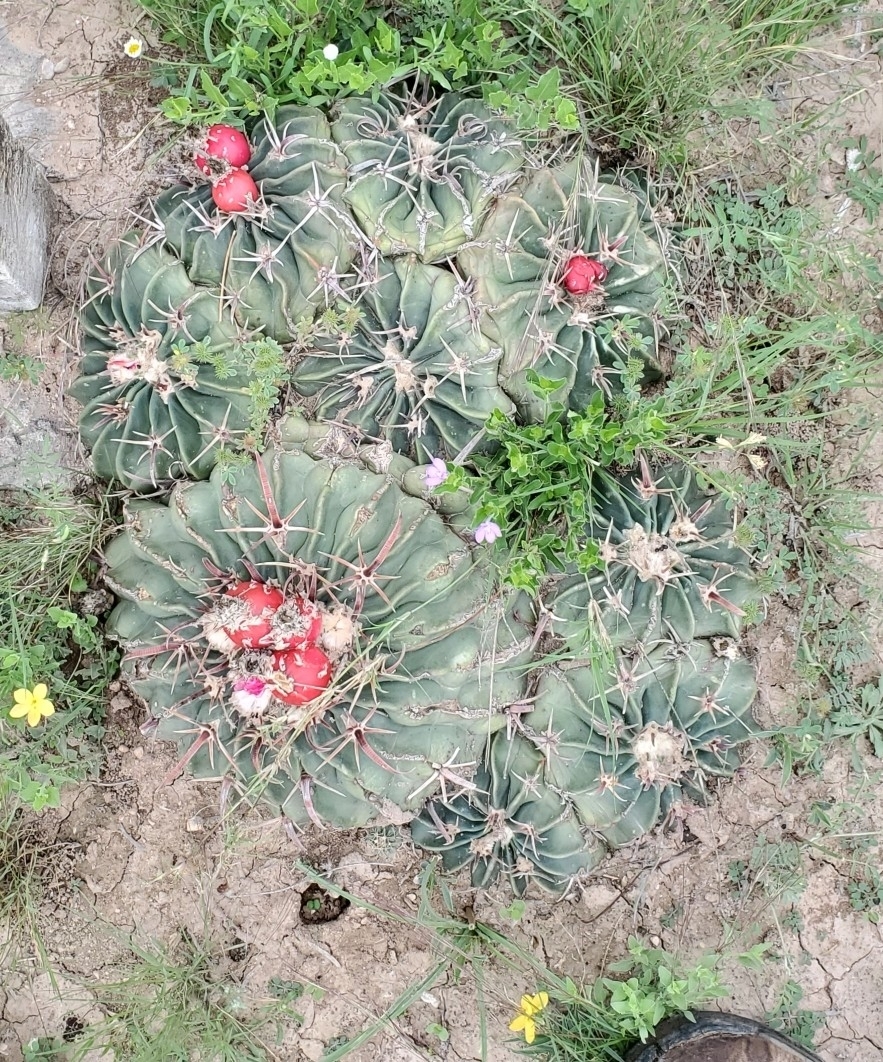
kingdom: Plantae
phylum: Tracheophyta
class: Magnoliopsida
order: Caryophyllales
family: Cactaceae
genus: Echinocactus
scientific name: Echinocactus texensis
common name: Devil's pincushion
